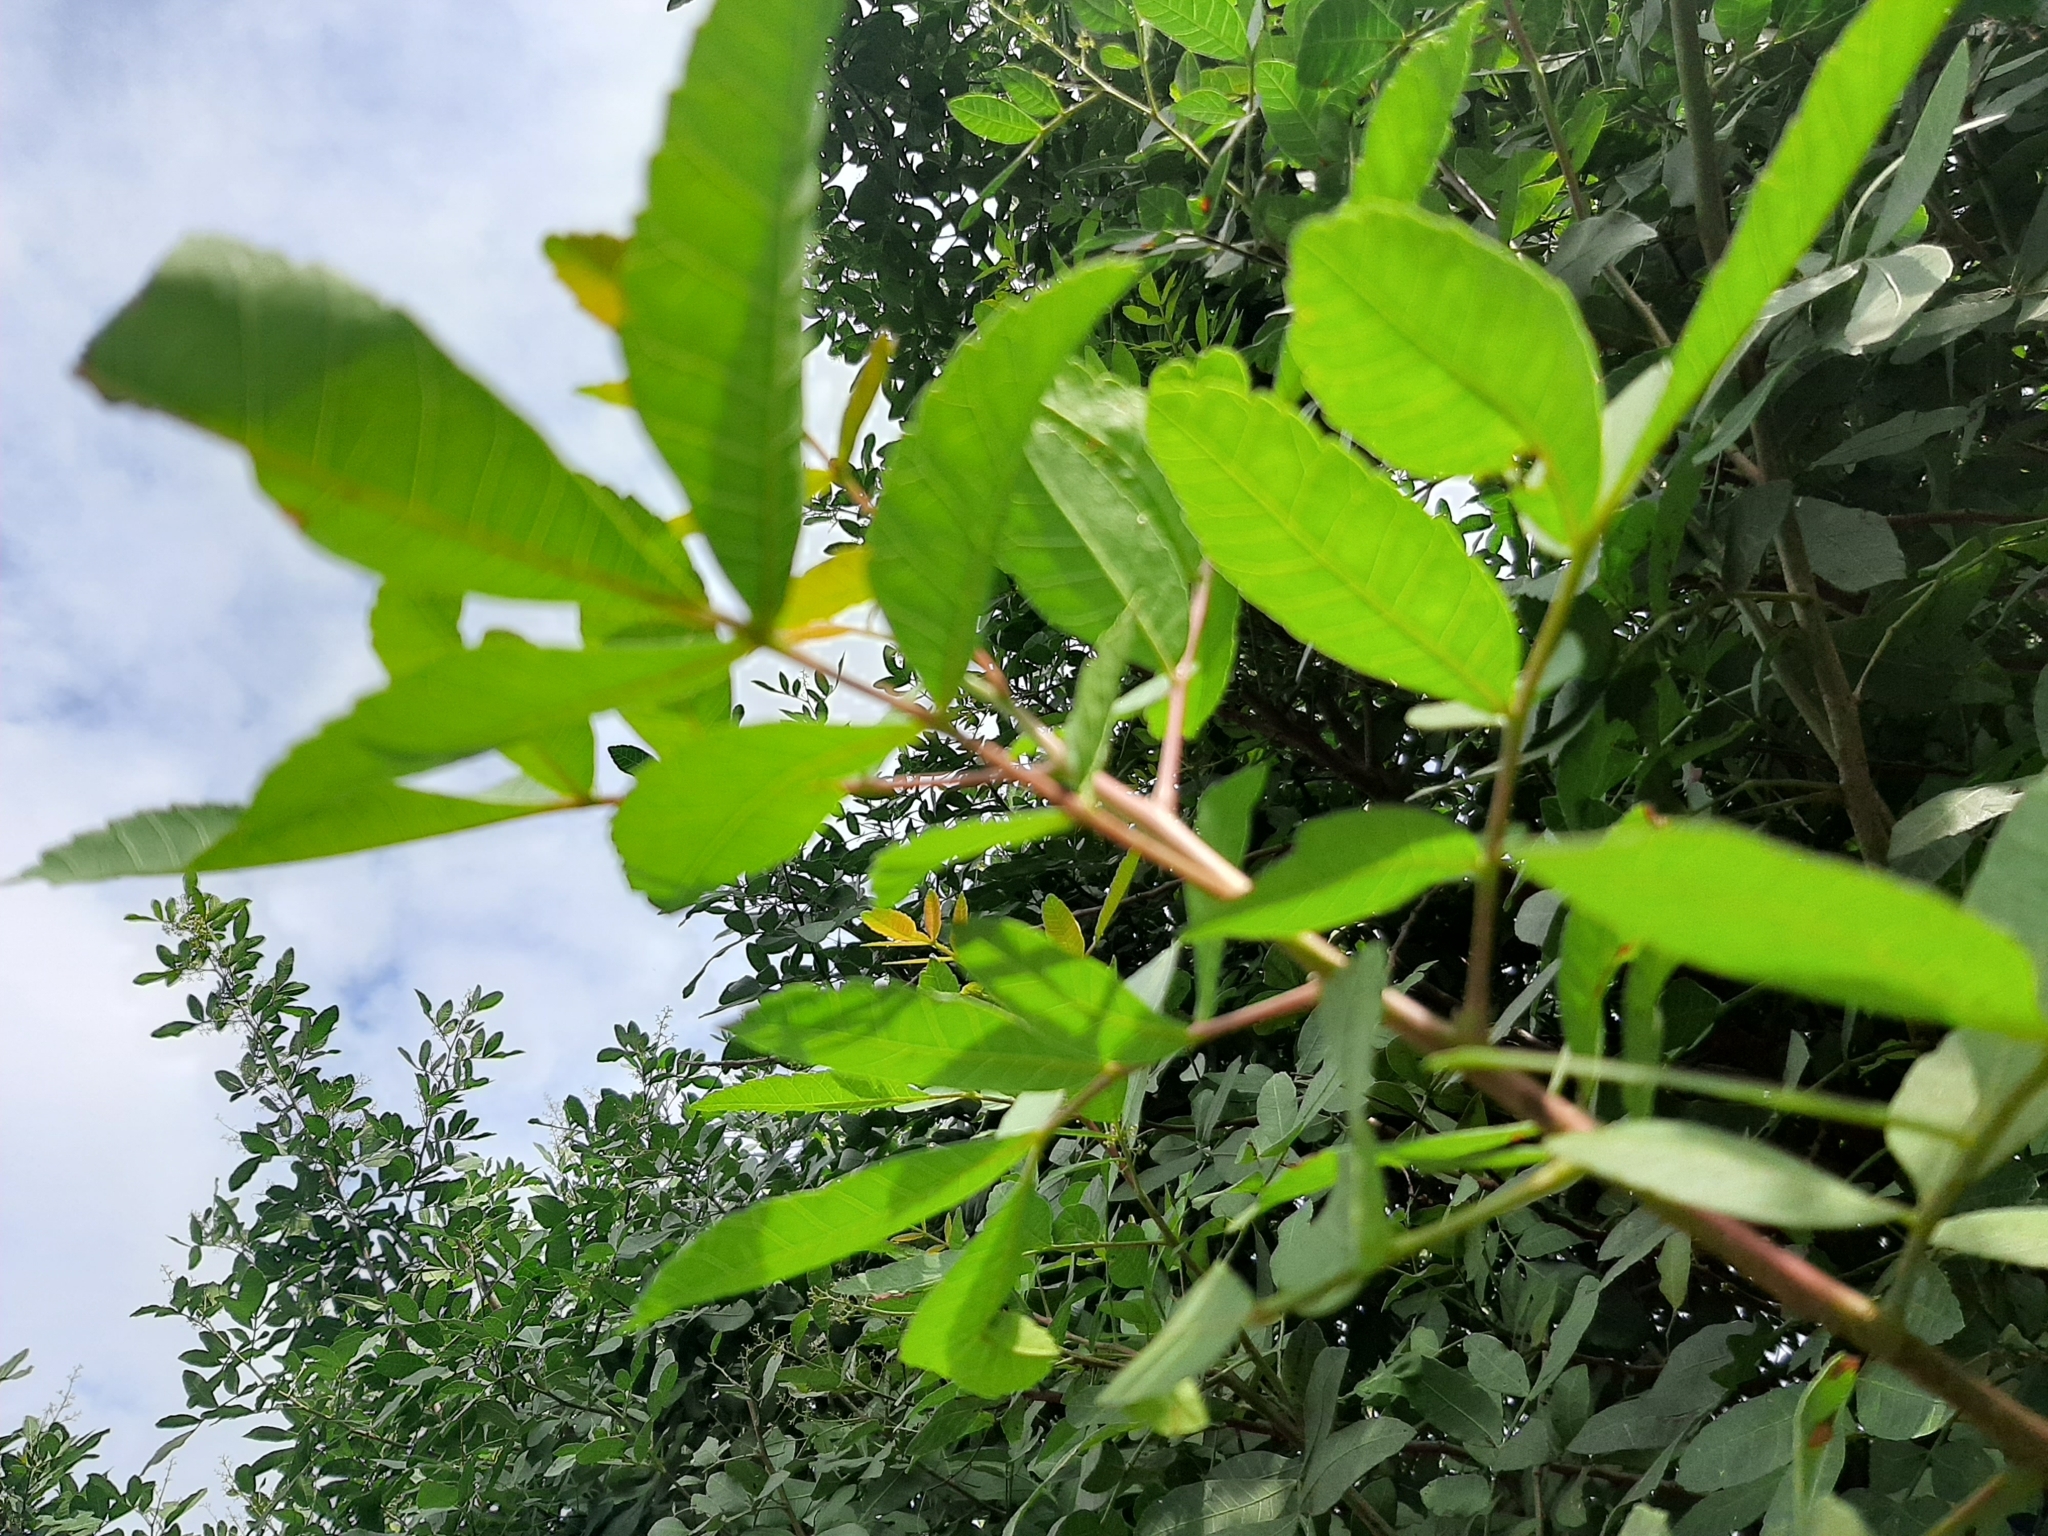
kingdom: Plantae
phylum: Tracheophyta
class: Magnoliopsida
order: Sapindales
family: Anacardiaceae
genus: Schinus
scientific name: Schinus terebinthifolia
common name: Brazilian peppertree
